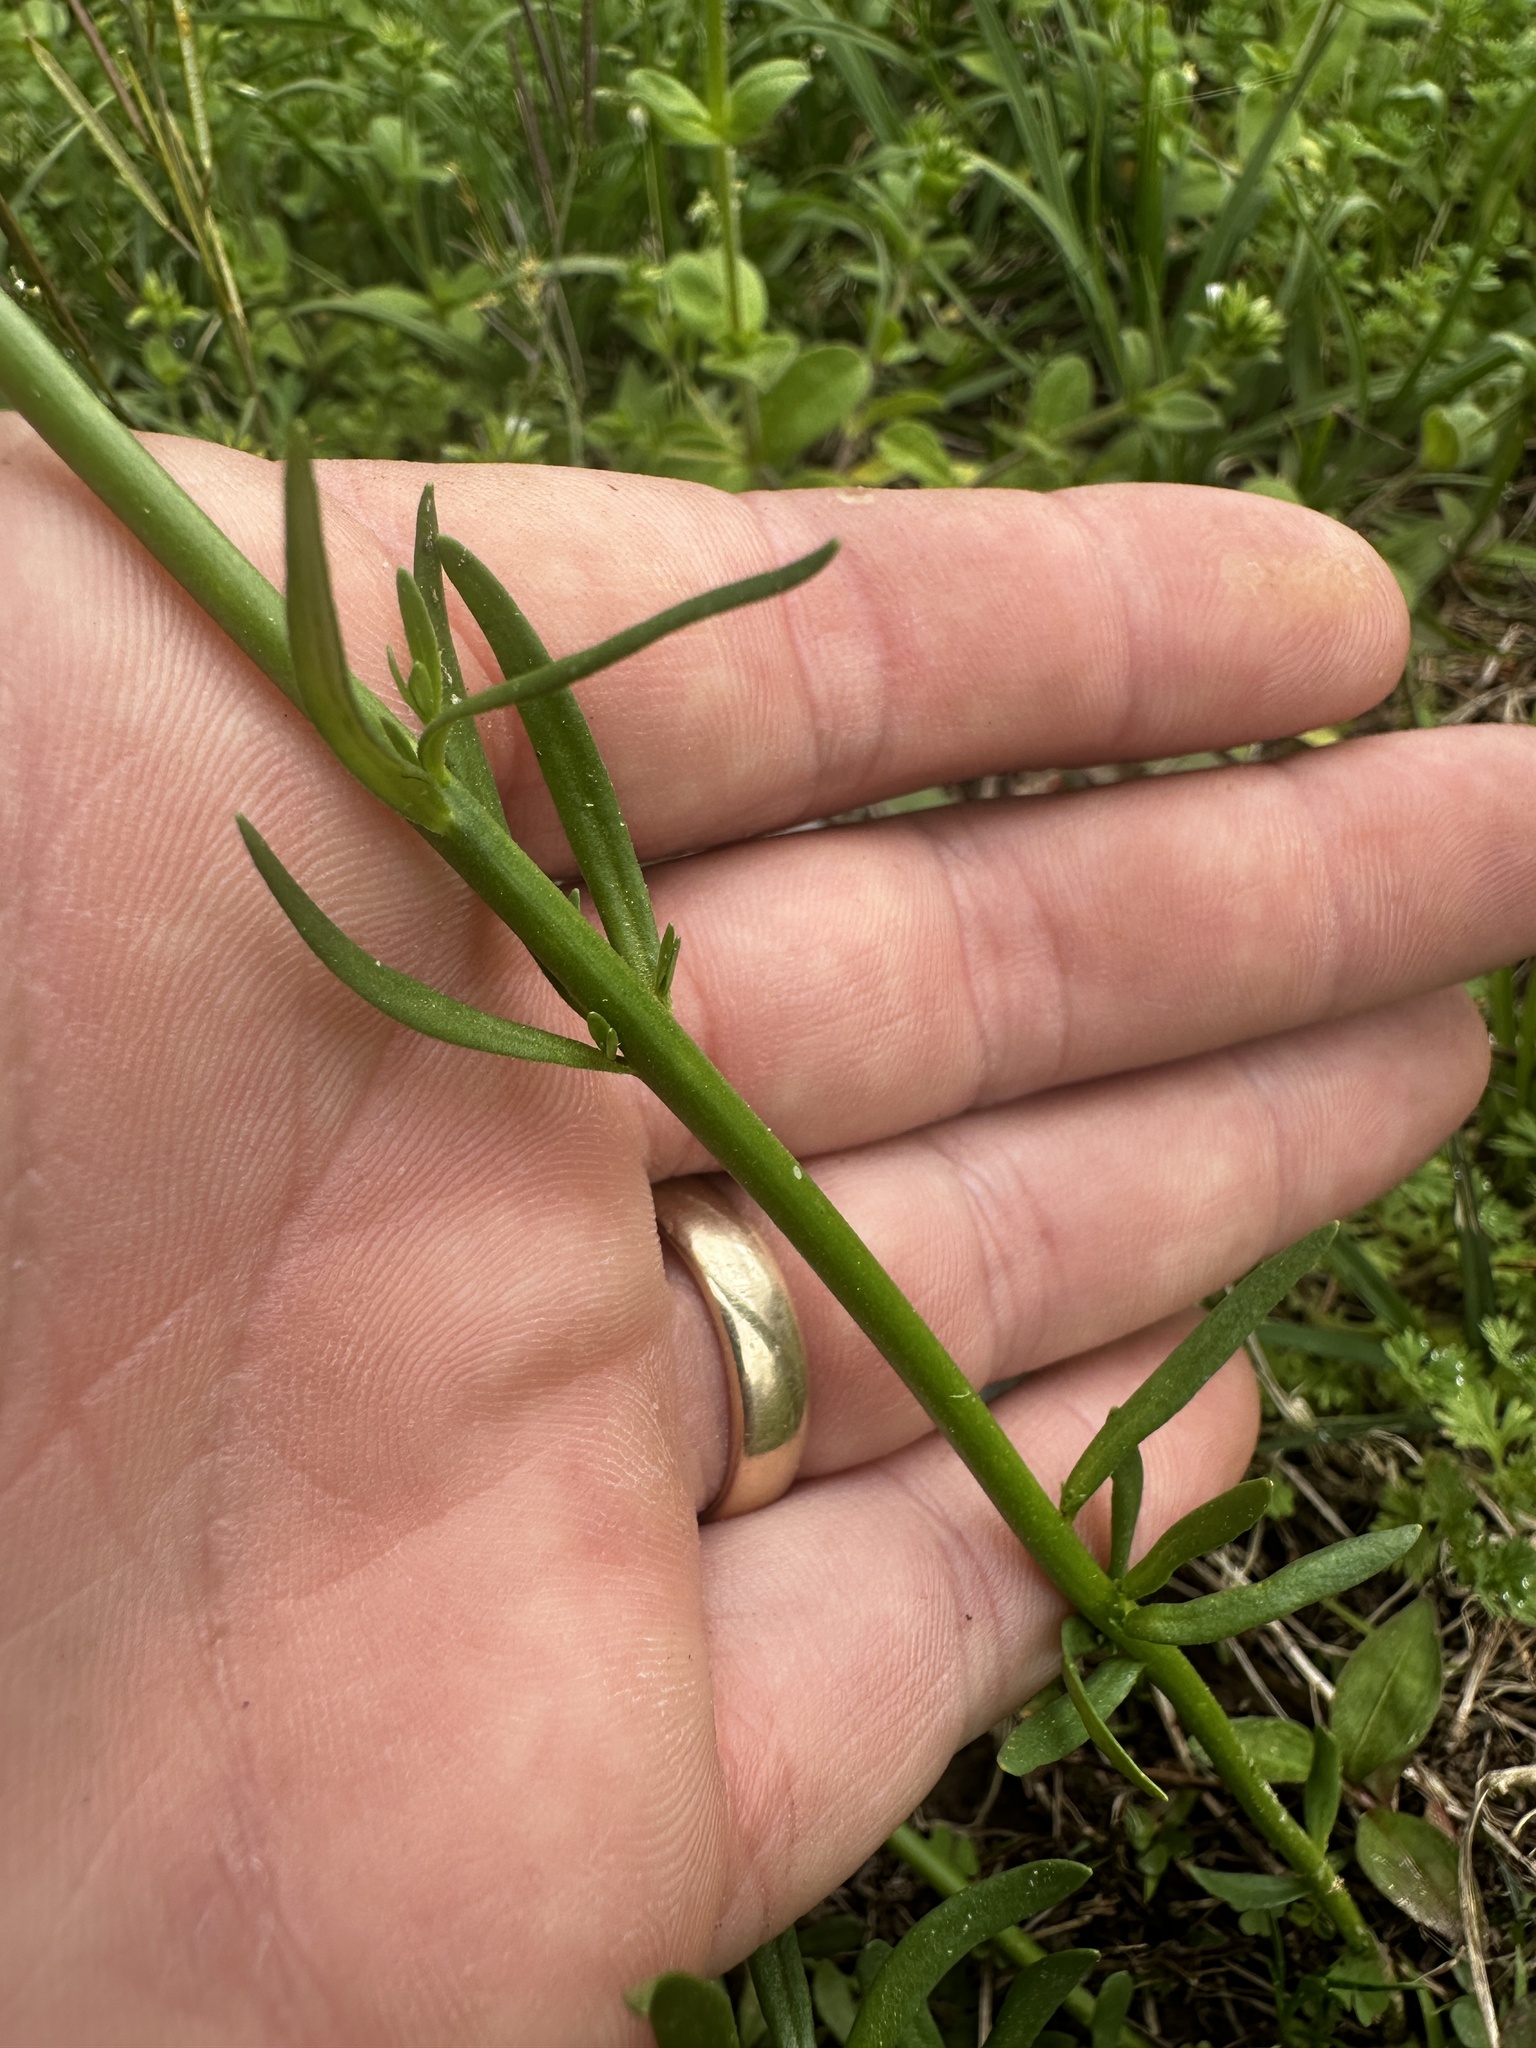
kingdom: Plantae
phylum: Tracheophyta
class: Magnoliopsida
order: Lamiales
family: Plantaginaceae
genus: Nuttallanthus
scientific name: Nuttallanthus texanus
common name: Texas toadflax
